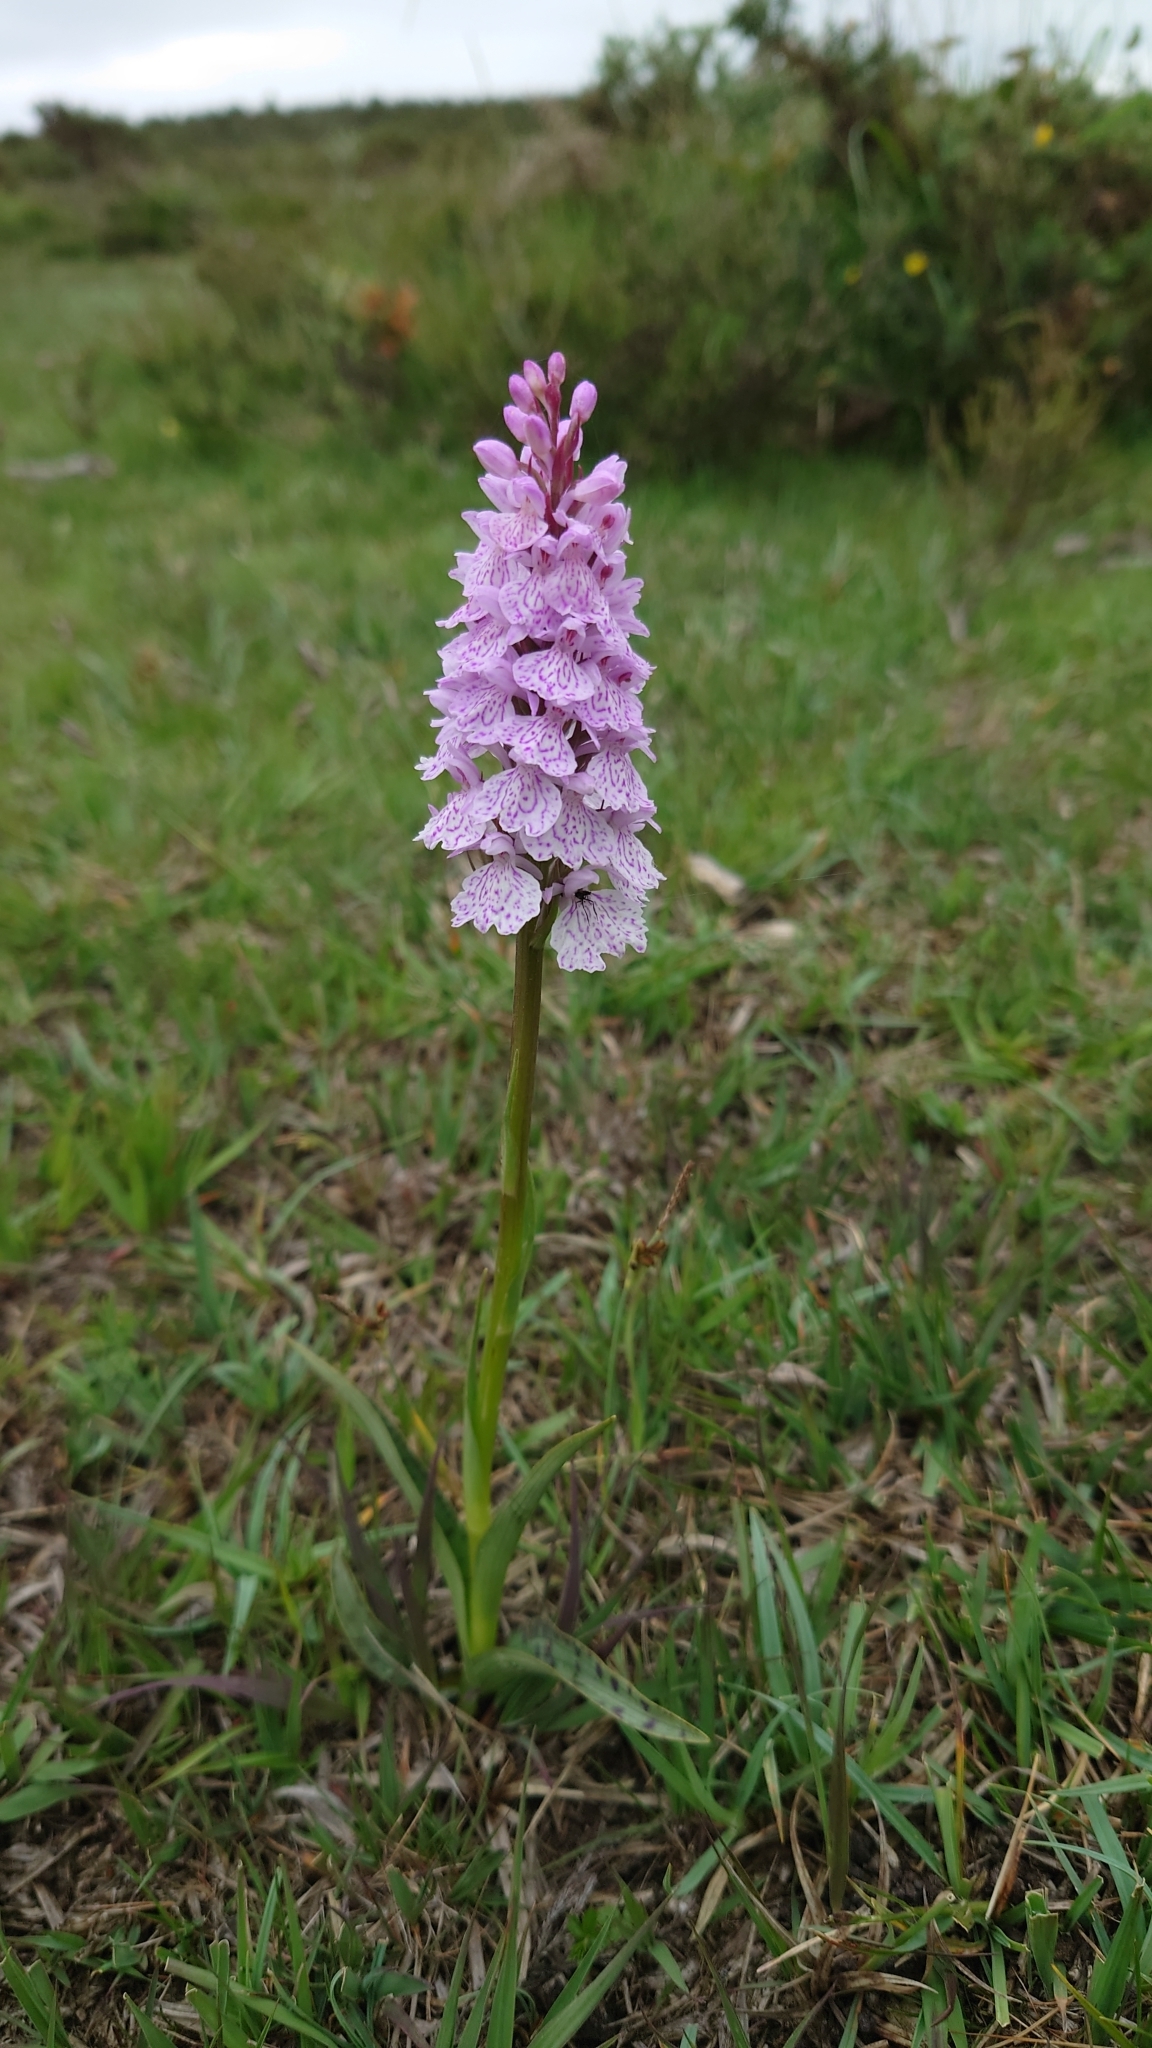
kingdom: Plantae
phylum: Tracheophyta
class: Liliopsida
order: Asparagales
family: Orchidaceae
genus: Dactylorhiza
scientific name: Dactylorhiza maculata
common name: Heath spotted-orchid
